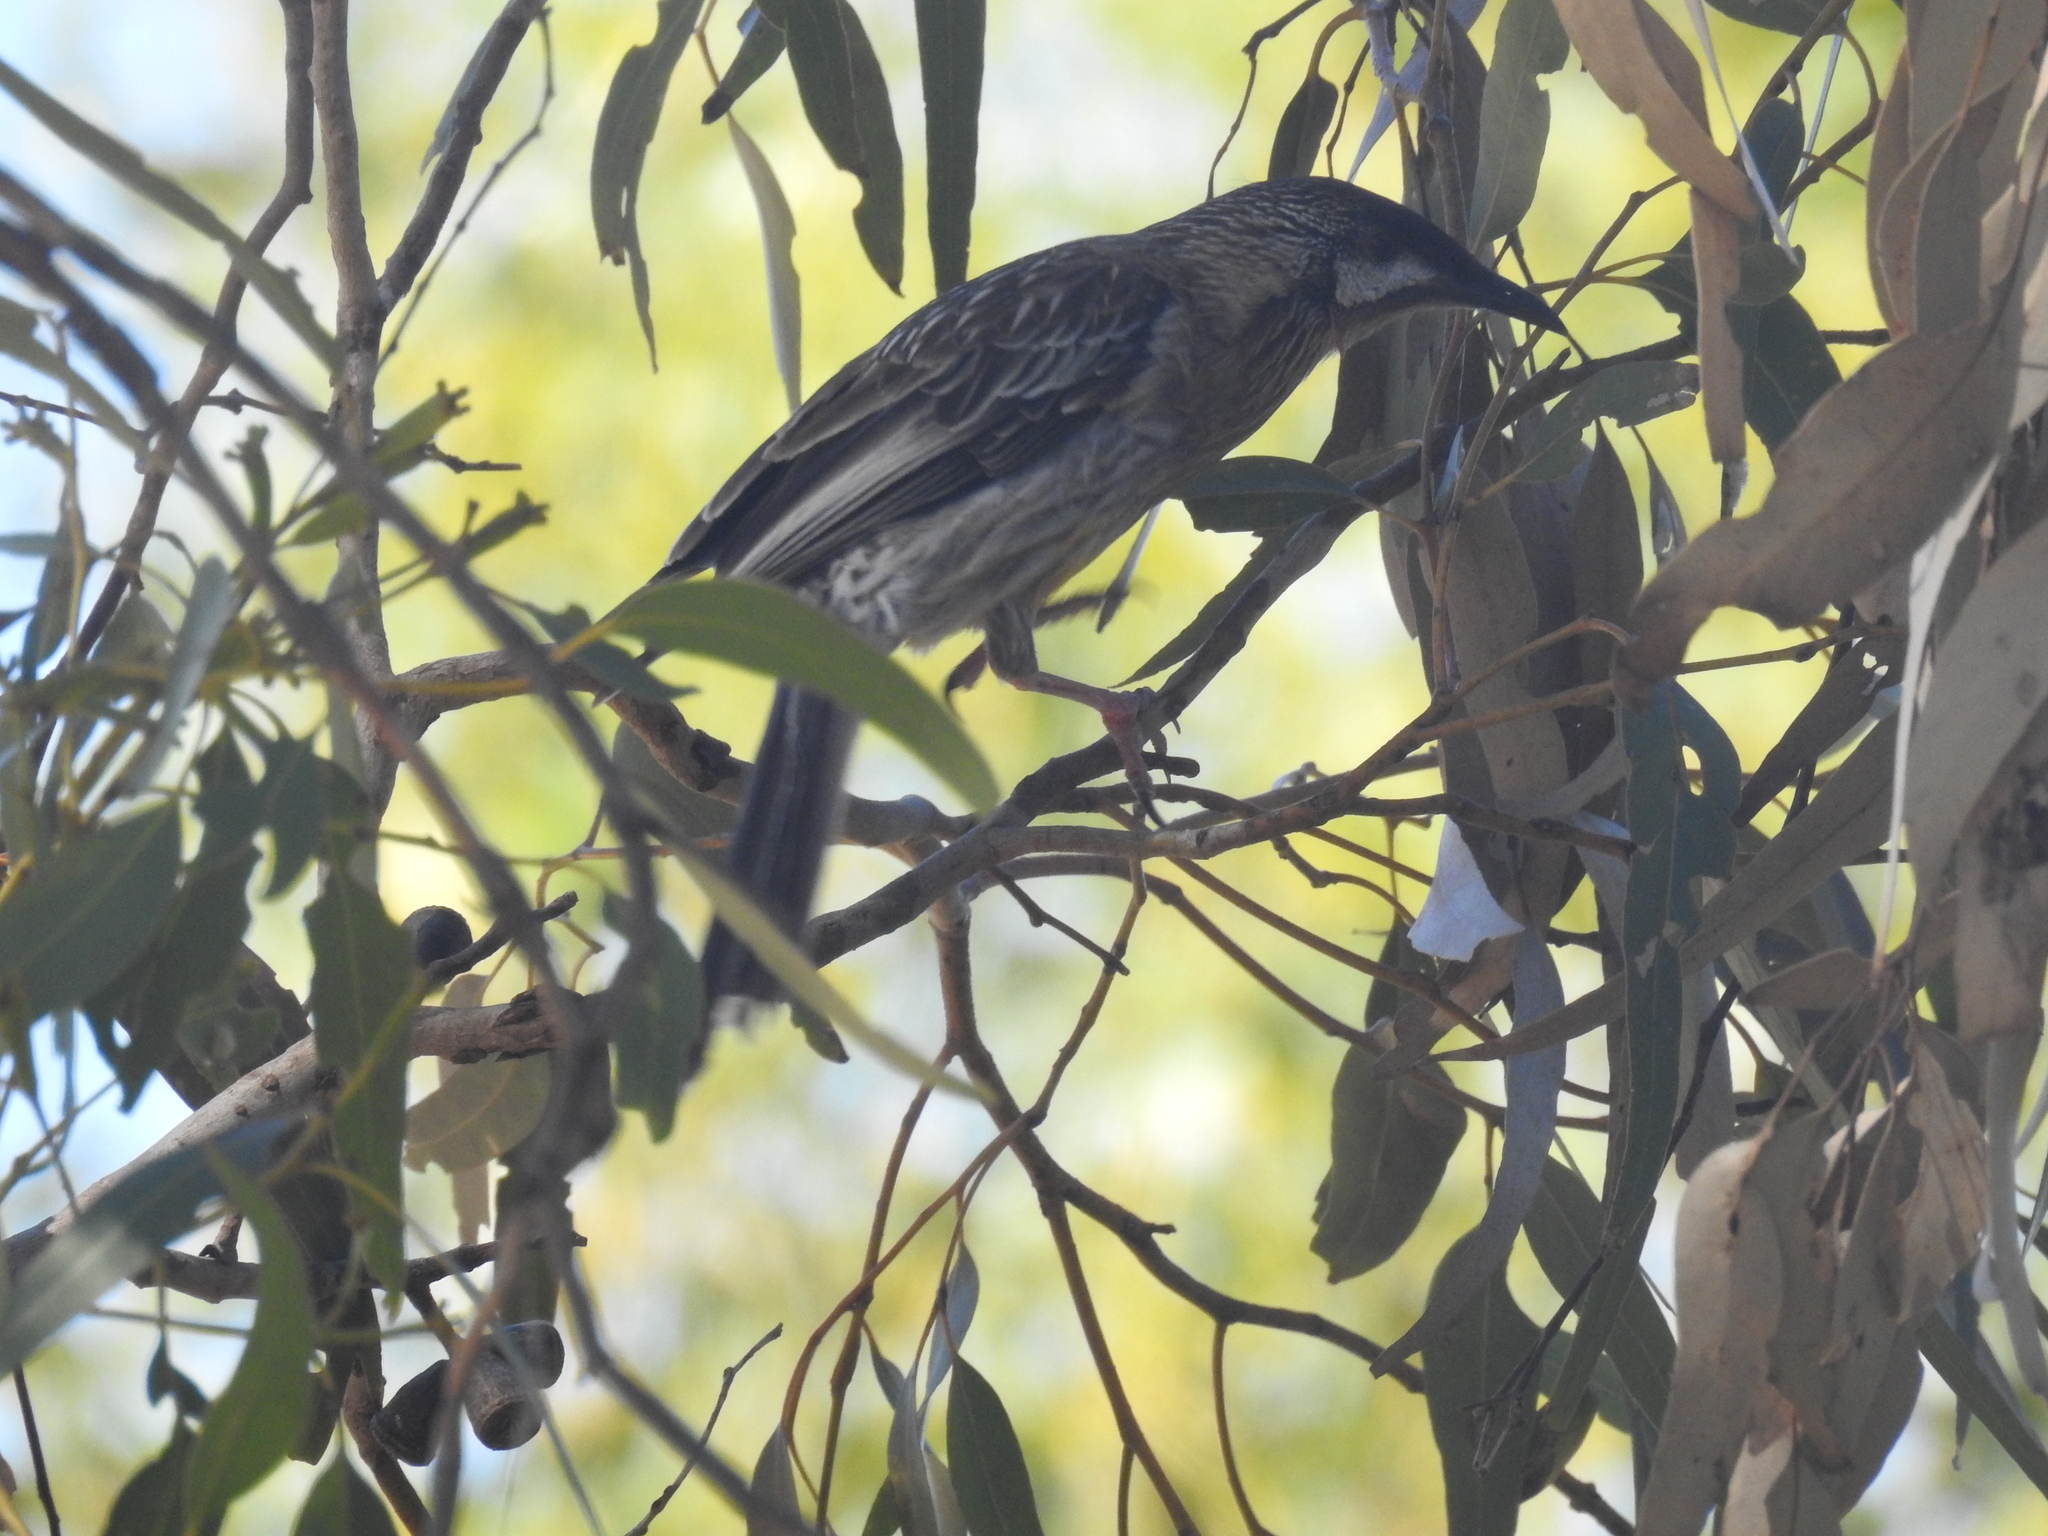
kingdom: Animalia
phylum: Chordata
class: Aves
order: Passeriformes
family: Meliphagidae
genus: Anthochaera
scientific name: Anthochaera carunculata
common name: Red wattlebird
